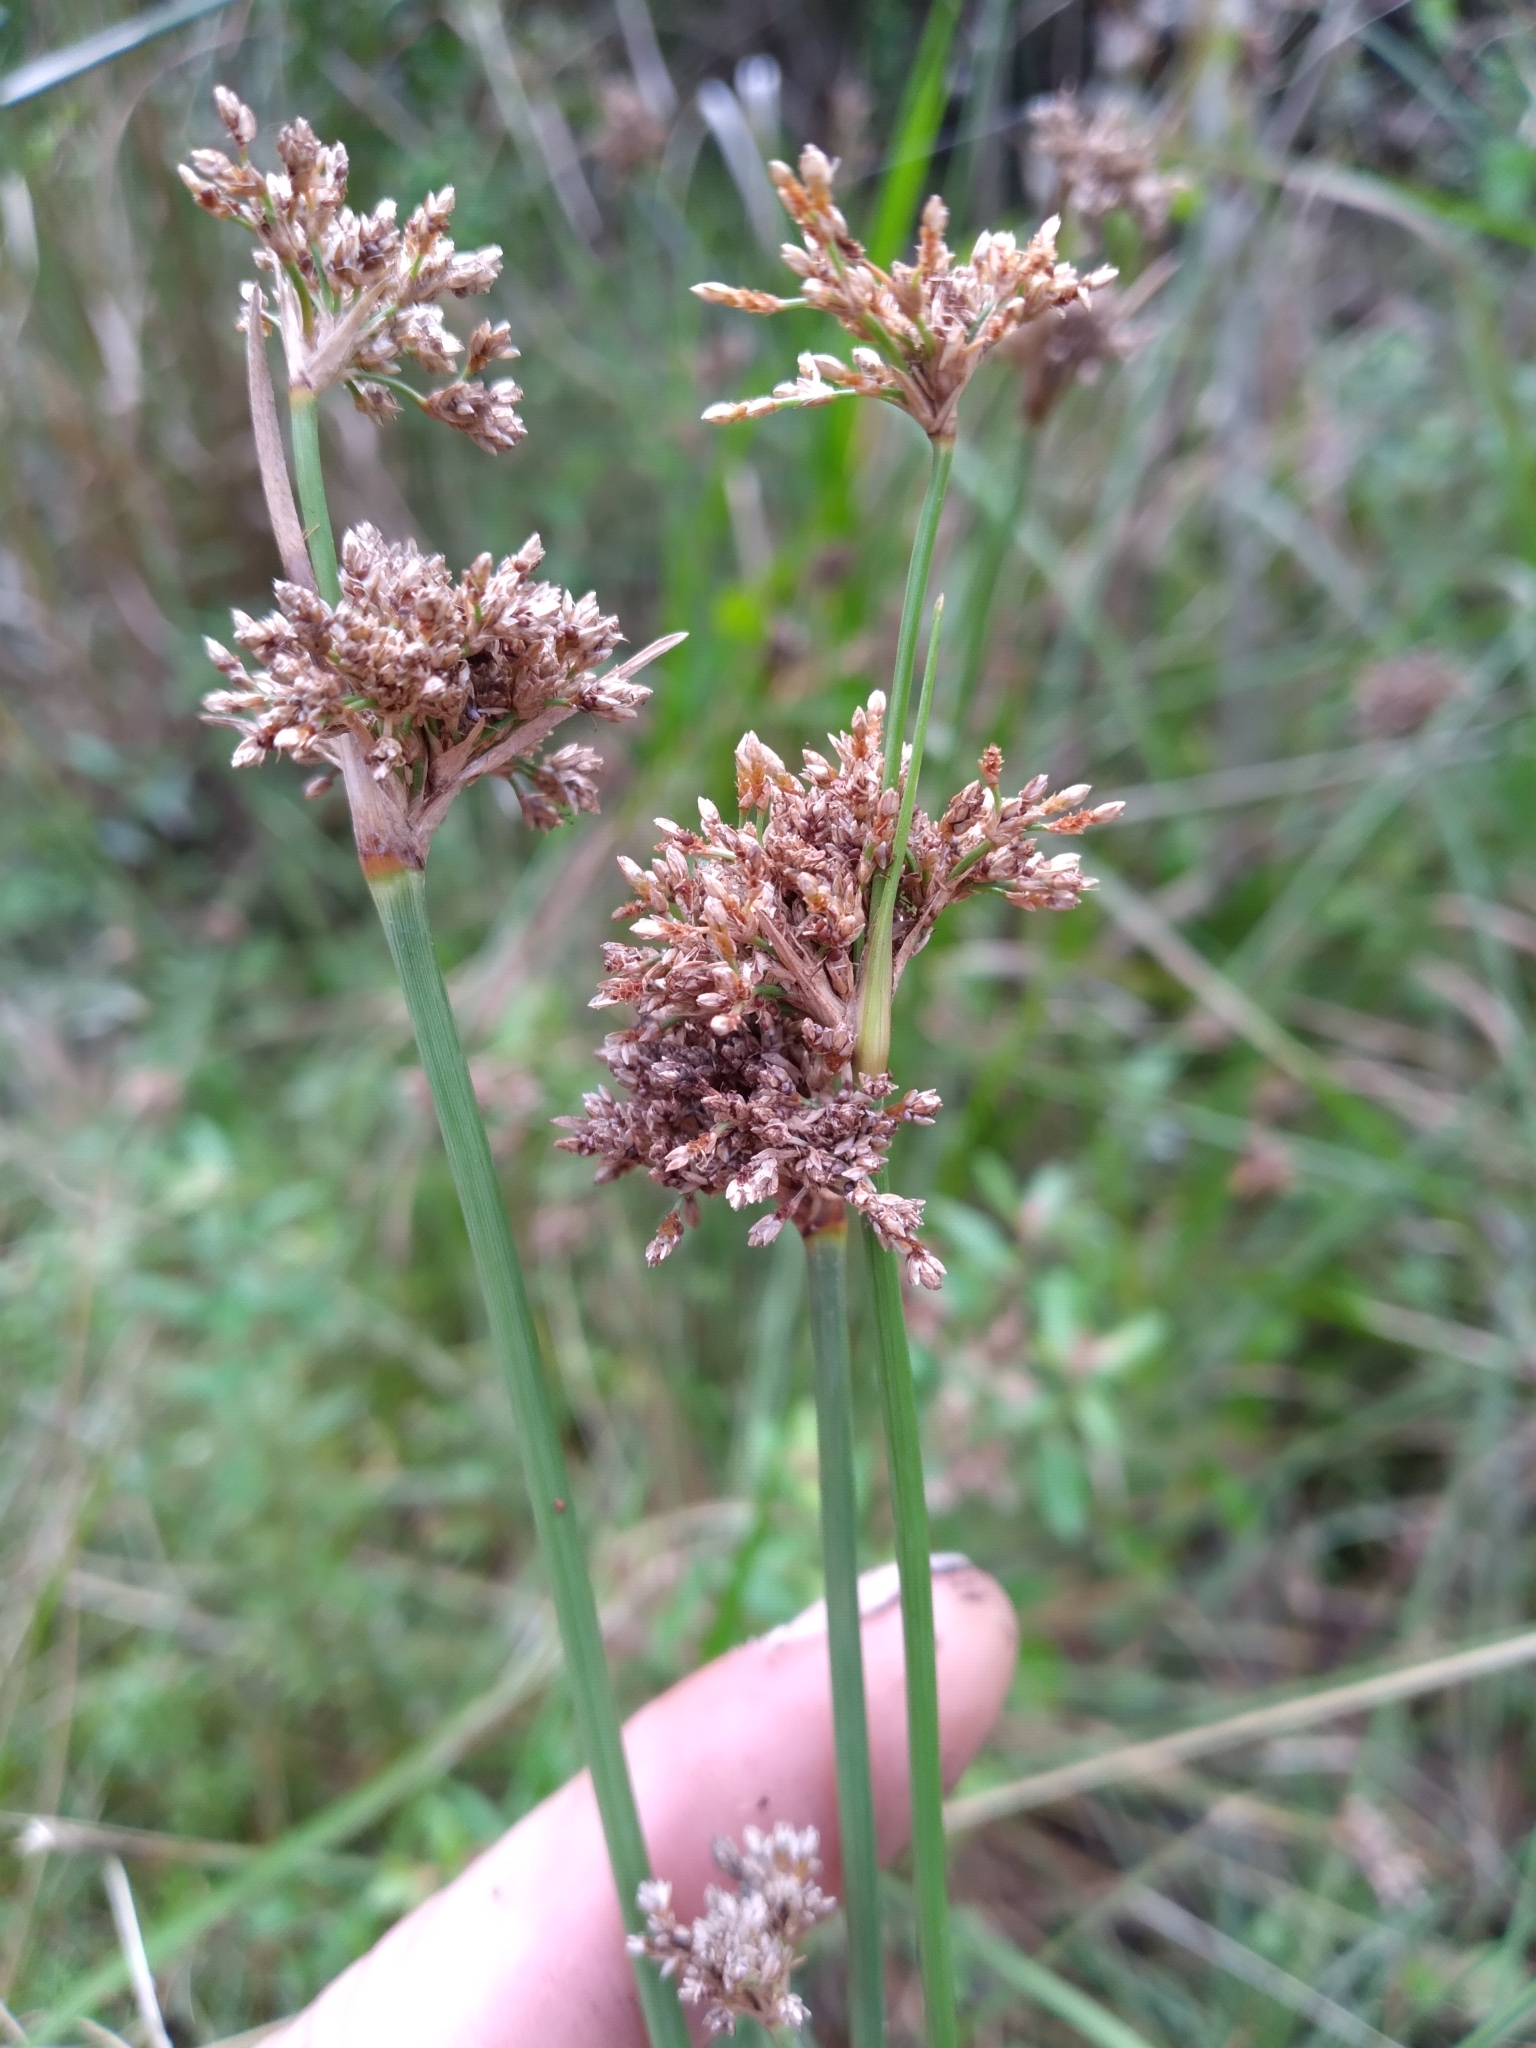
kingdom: Plantae
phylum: Tracheophyta
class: Liliopsida
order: Poales
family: Cyperaceae
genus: Fimbristylis
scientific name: Fimbristylis cymosa
